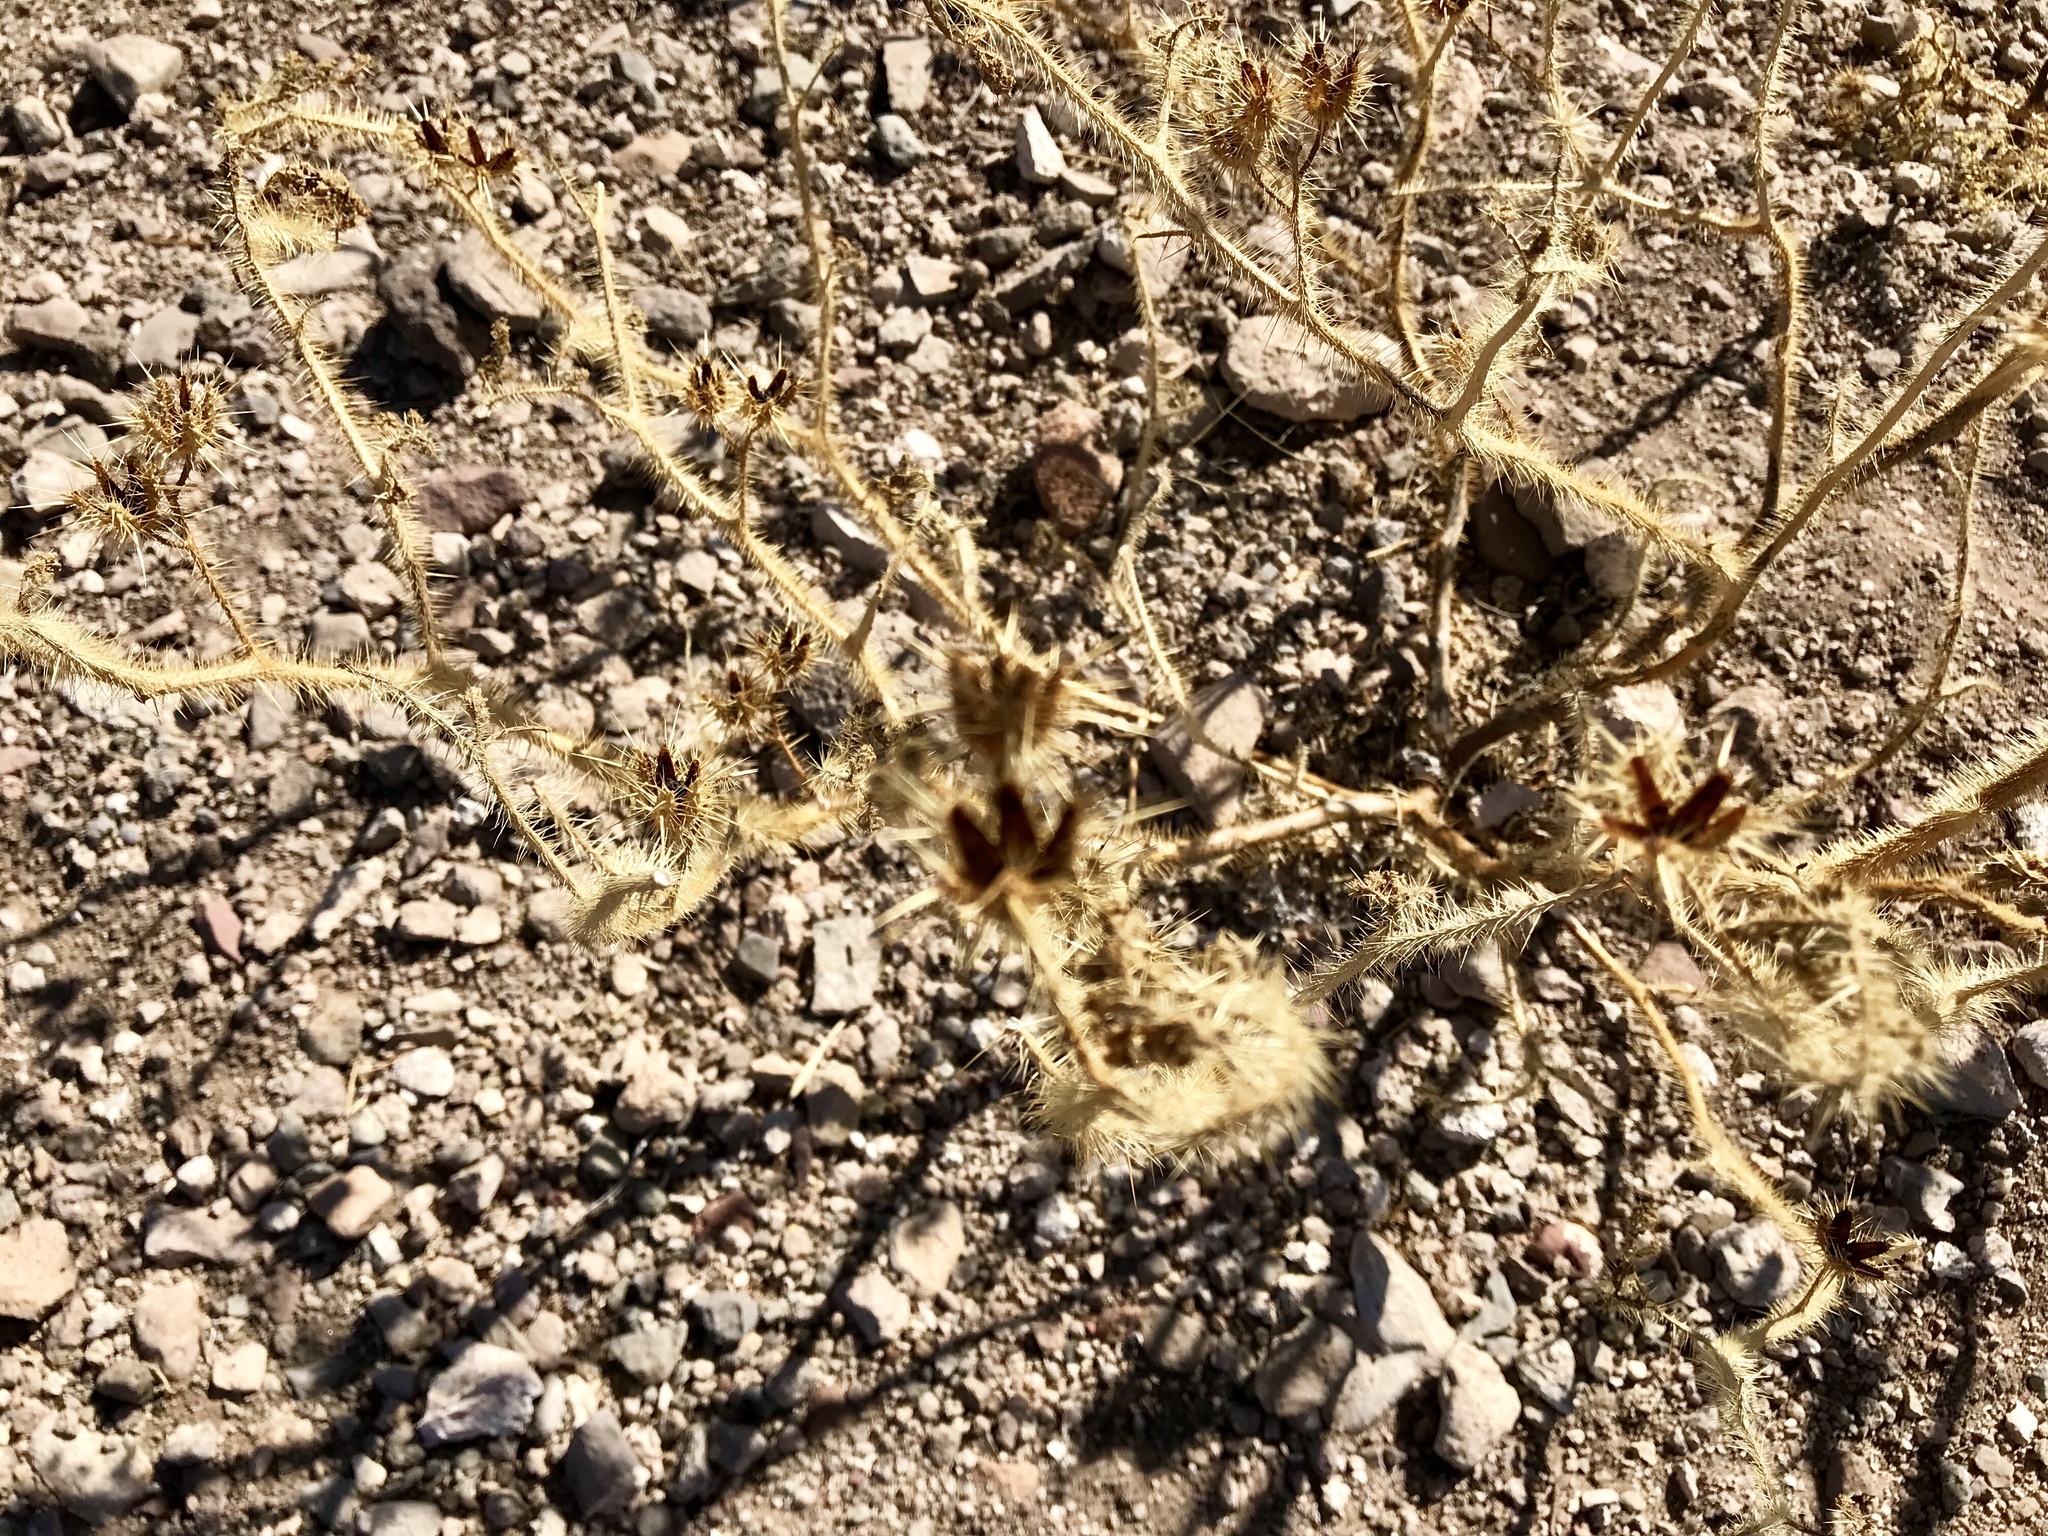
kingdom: Plantae
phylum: Tracheophyta
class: Magnoliopsida
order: Solanales
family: Solanaceae
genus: Solanum
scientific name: Solanum angustifolium
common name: Buffalobur nightshade
